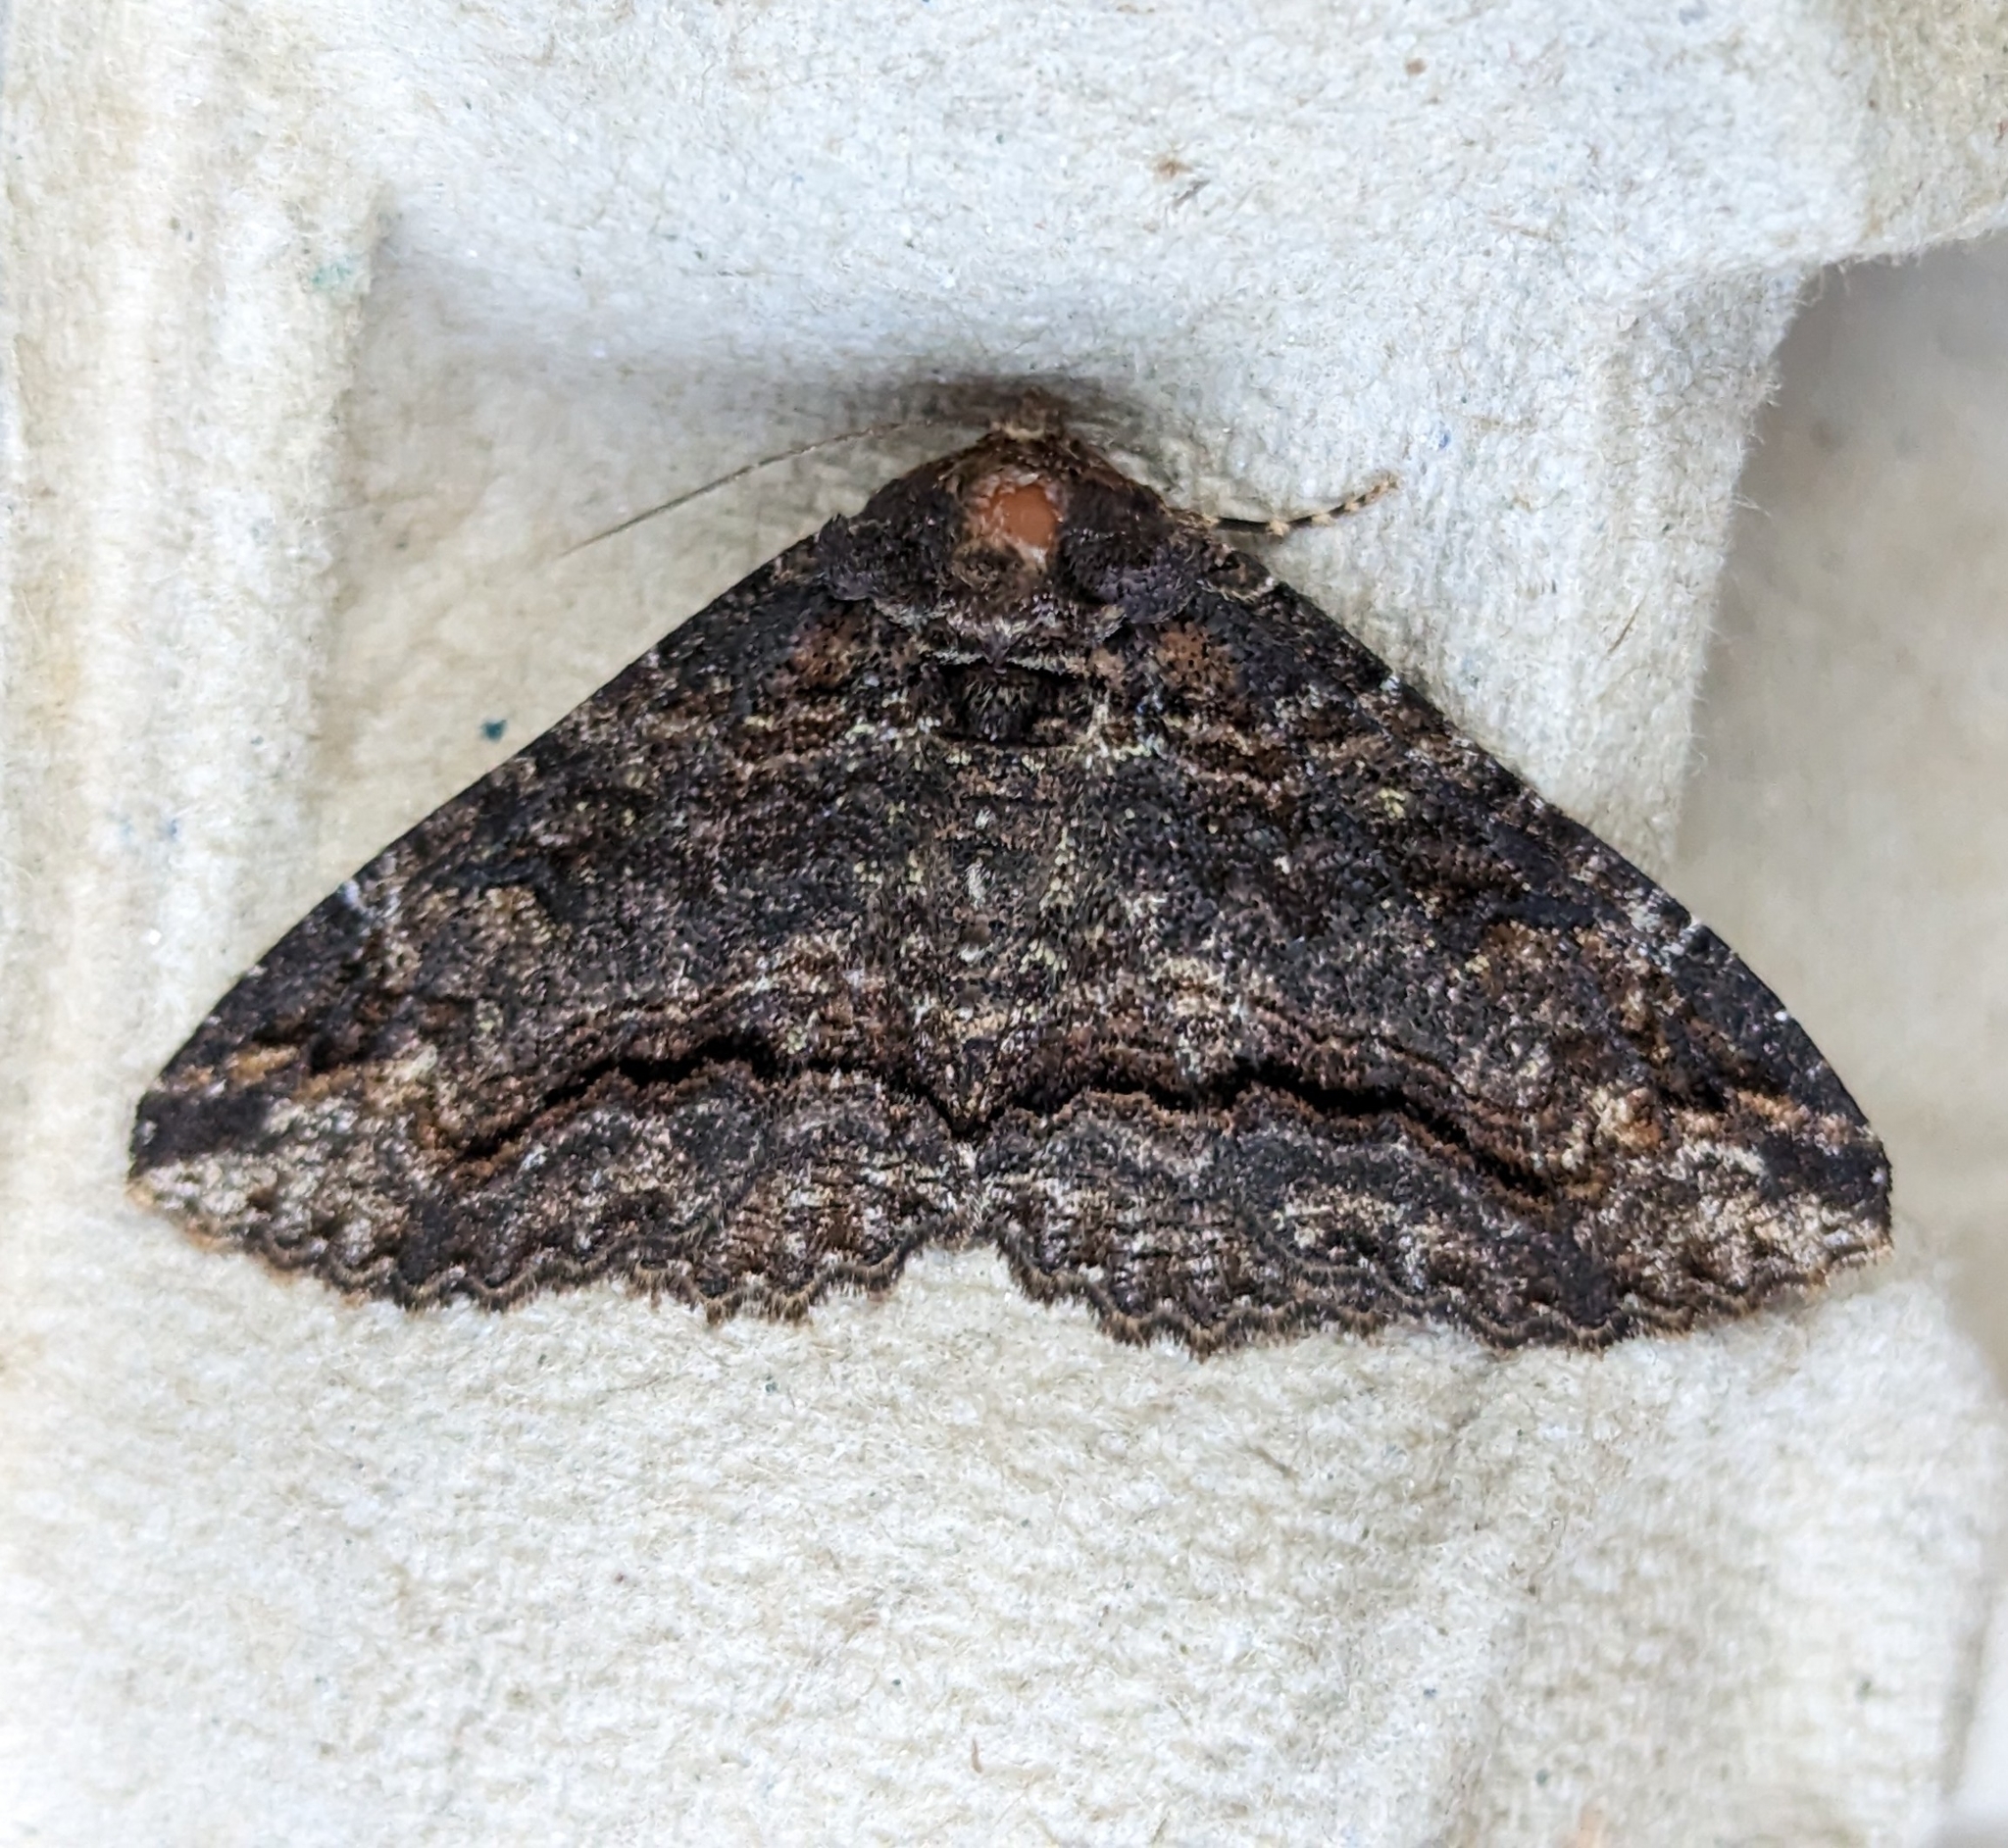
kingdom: Animalia
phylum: Arthropoda
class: Insecta
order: Lepidoptera
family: Erebidae
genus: Zale
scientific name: Zale minerea
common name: Colorful zale moth
